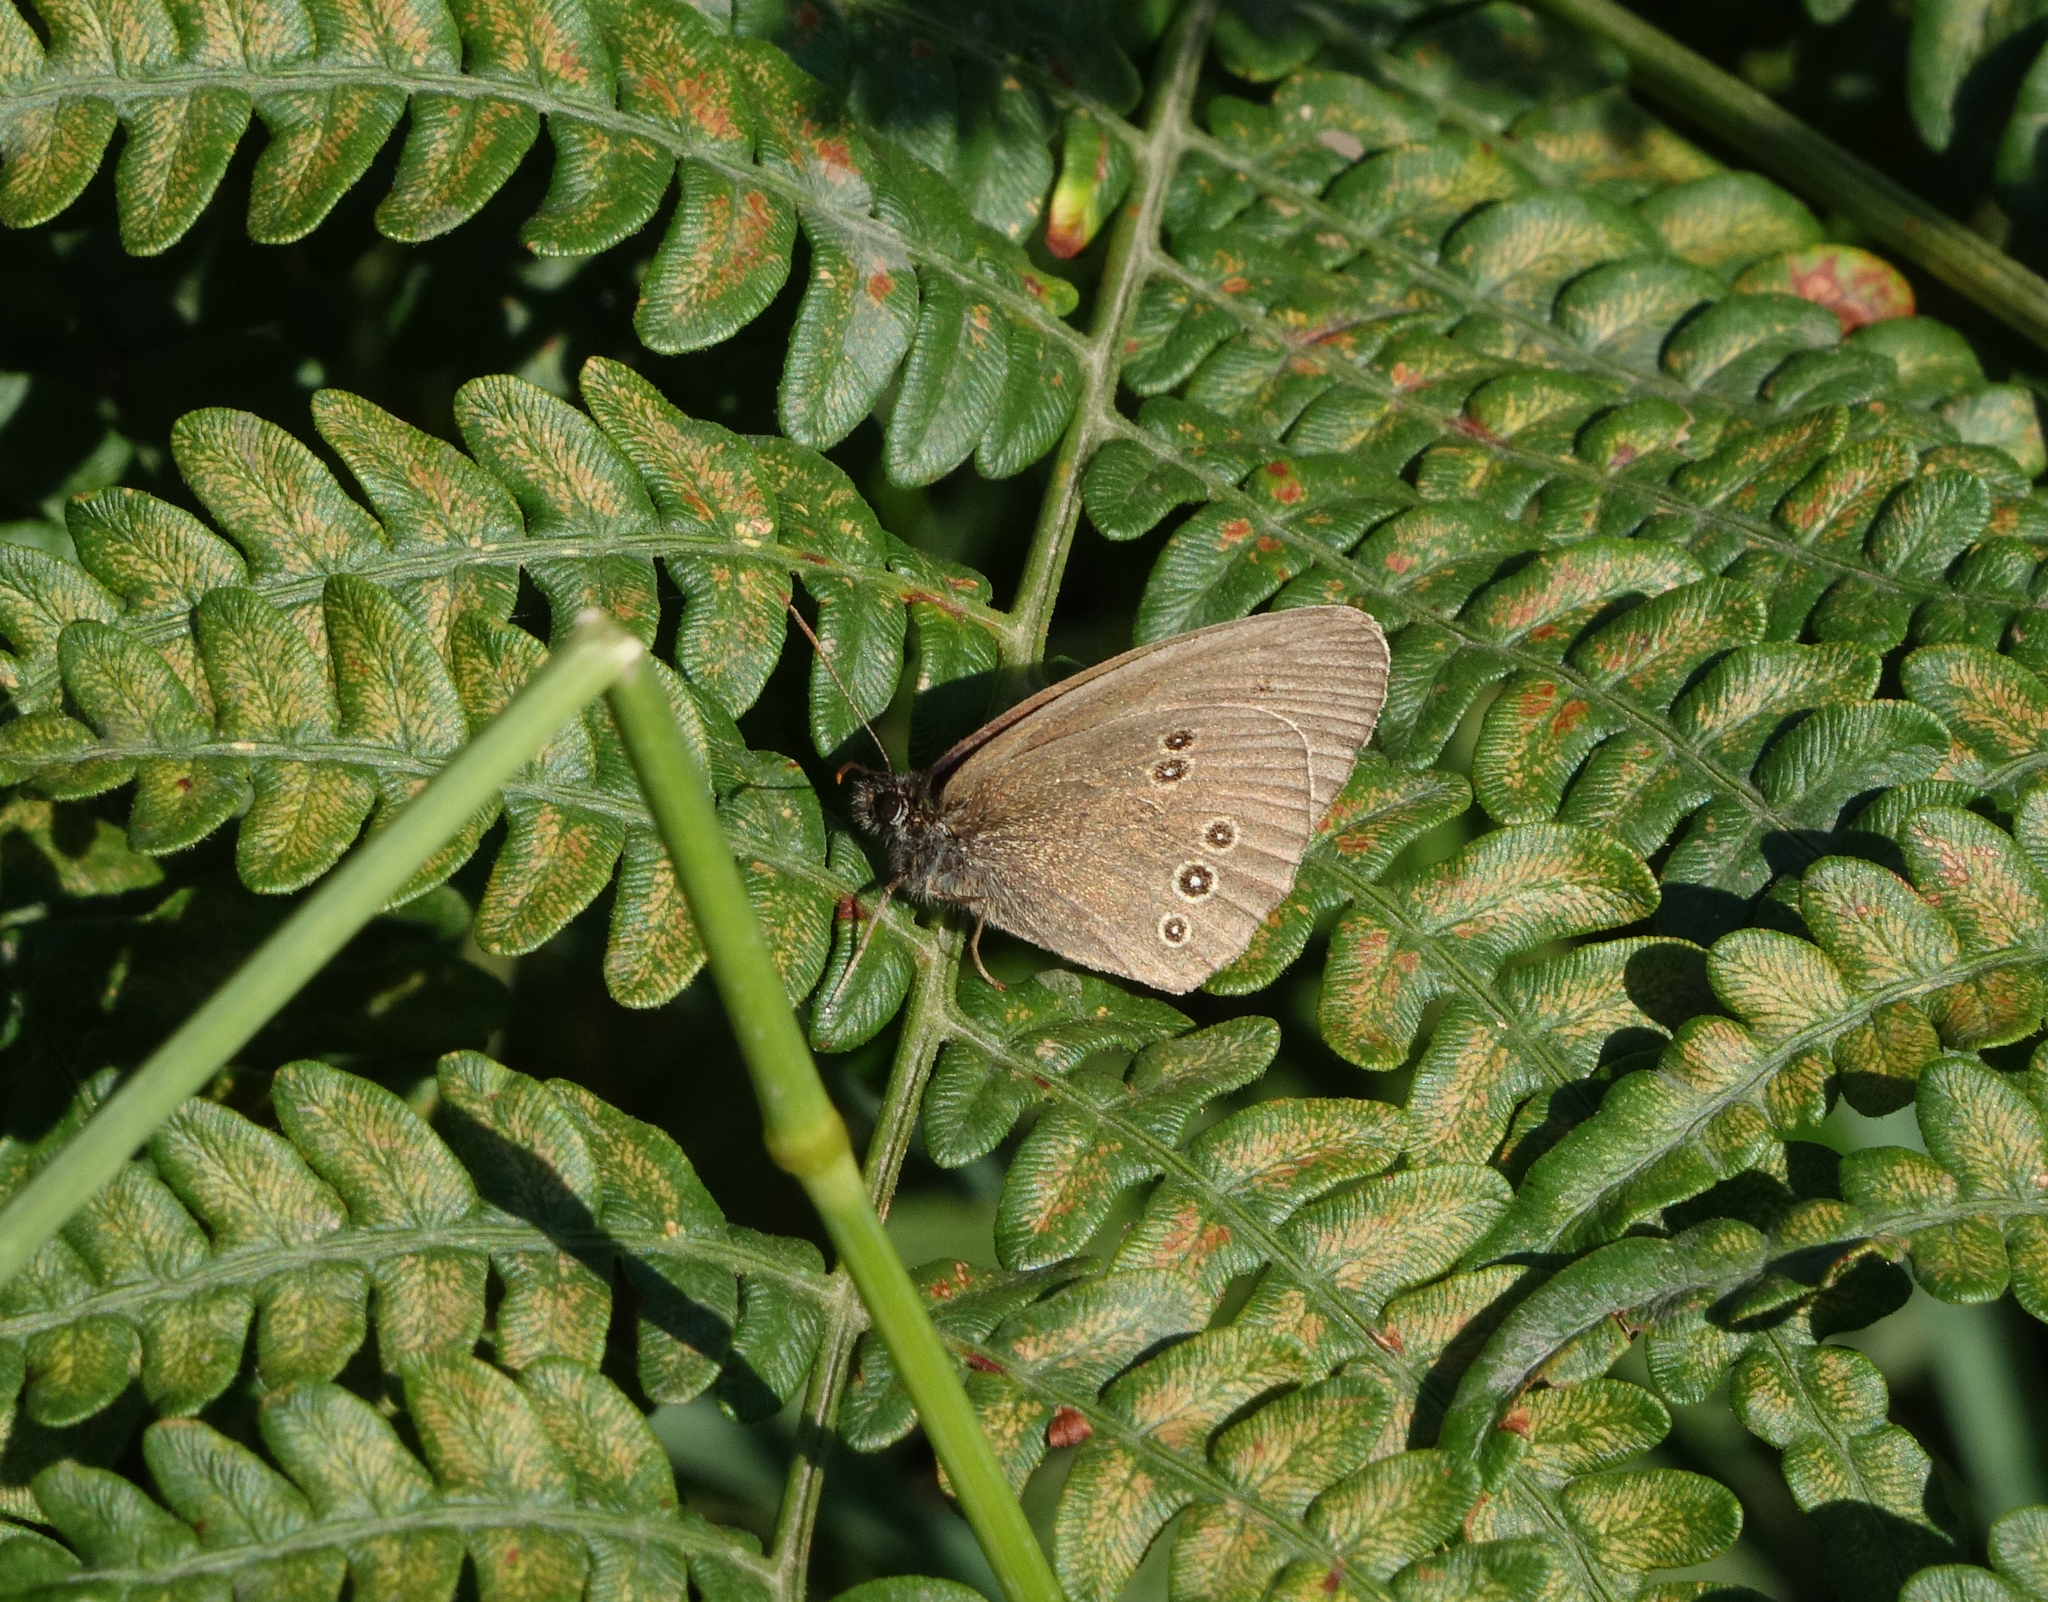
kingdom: Animalia
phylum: Arthropoda
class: Insecta
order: Lepidoptera
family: Nymphalidae
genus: Aphantopus
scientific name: Aphantopus hyperantus
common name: Ringlet
